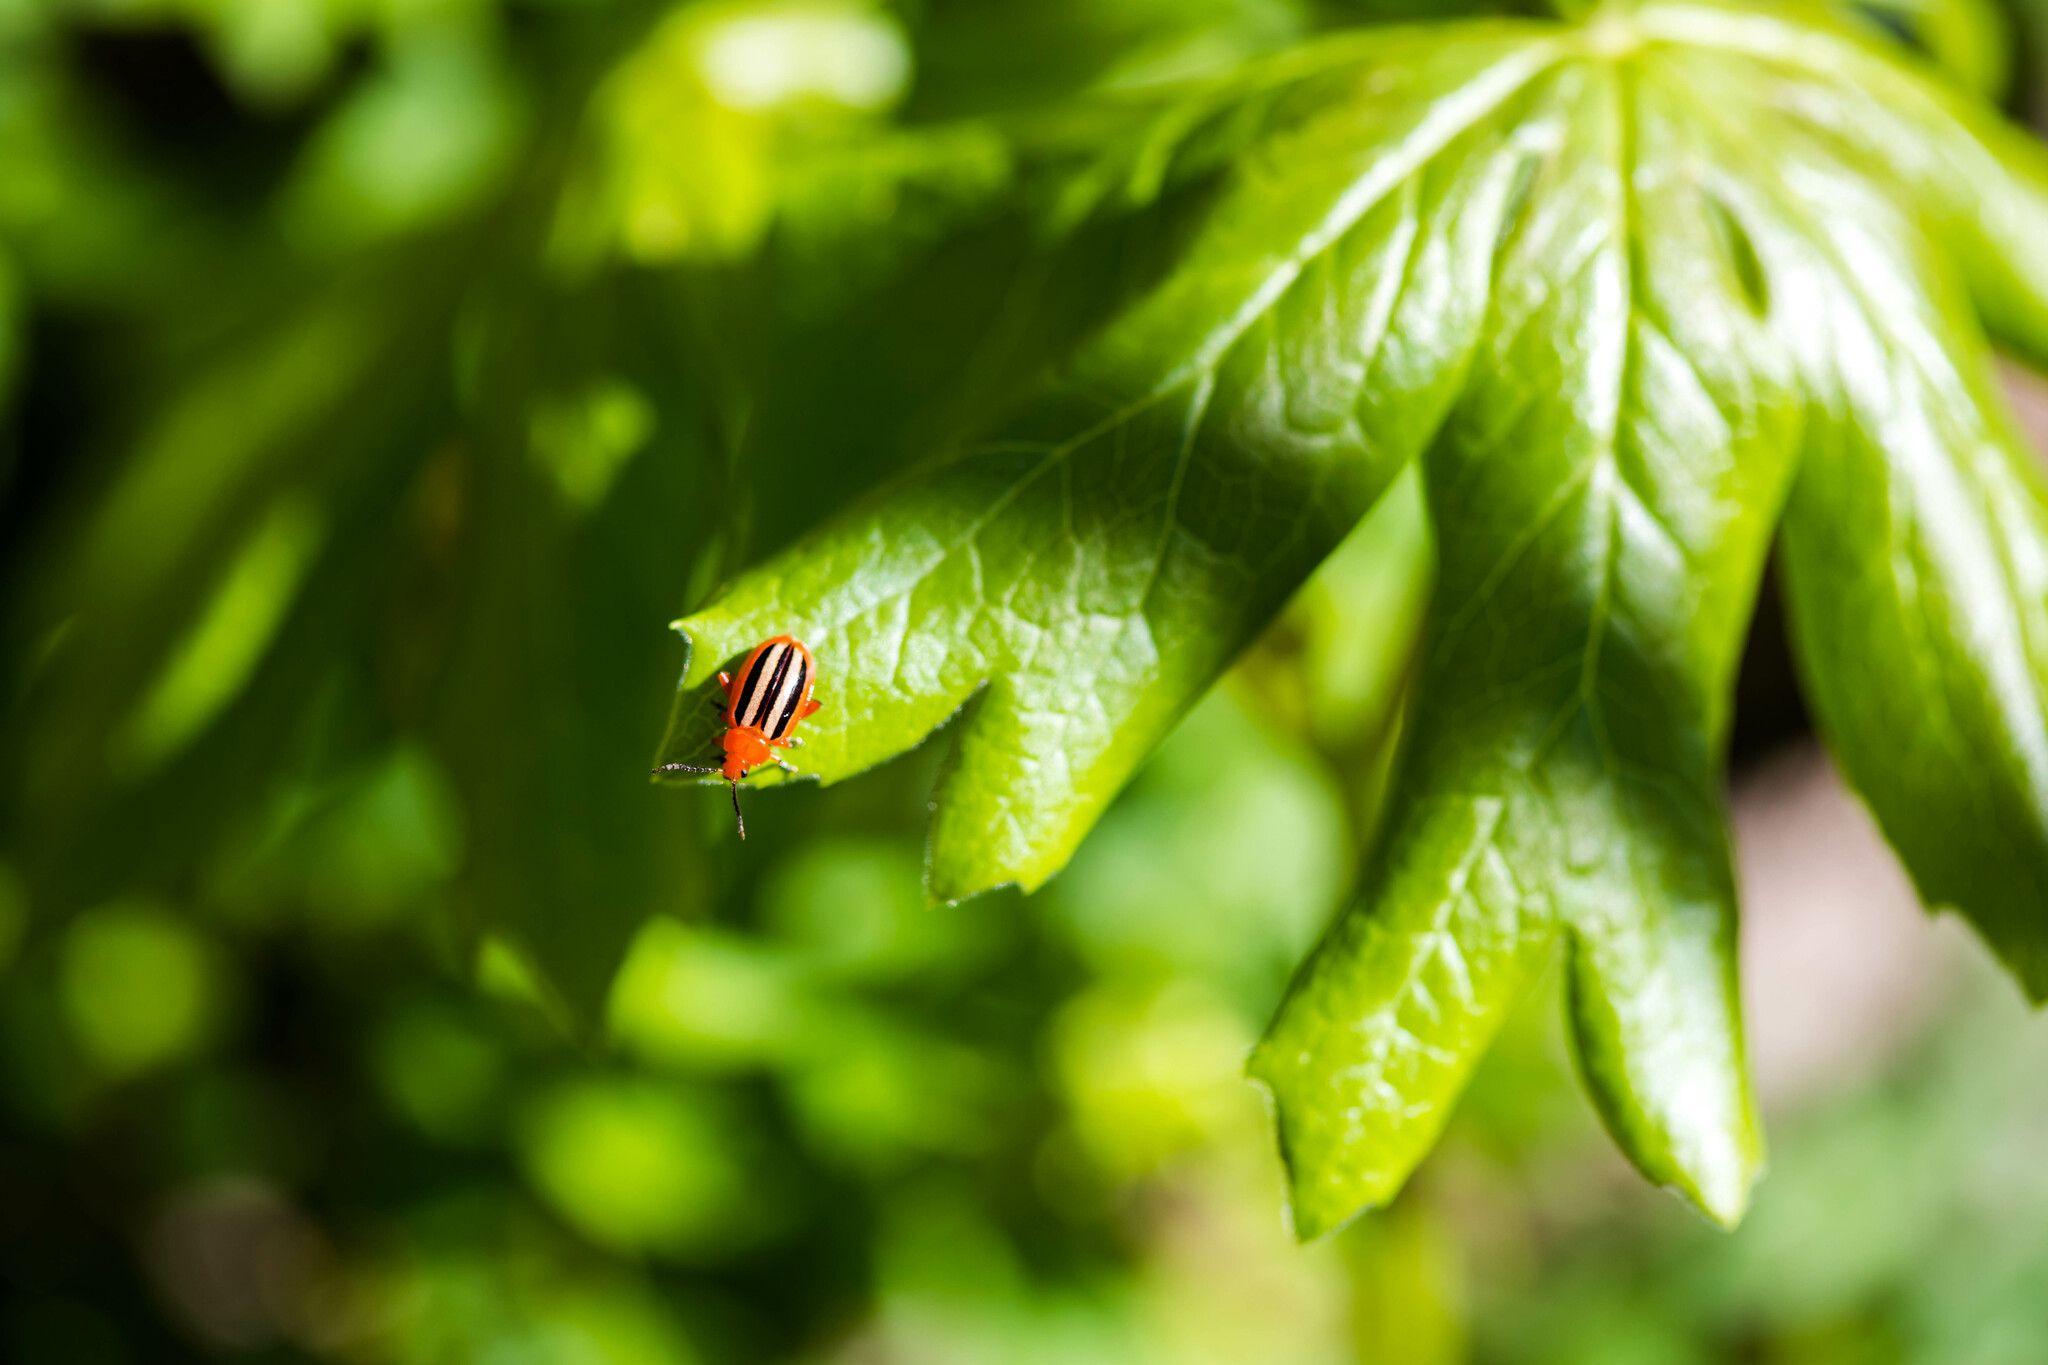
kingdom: Animalia
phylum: Arthropoda
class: Insecta
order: Coleoptera
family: Chrysomelidae
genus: Disonycha
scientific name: Disonycha discoidea
